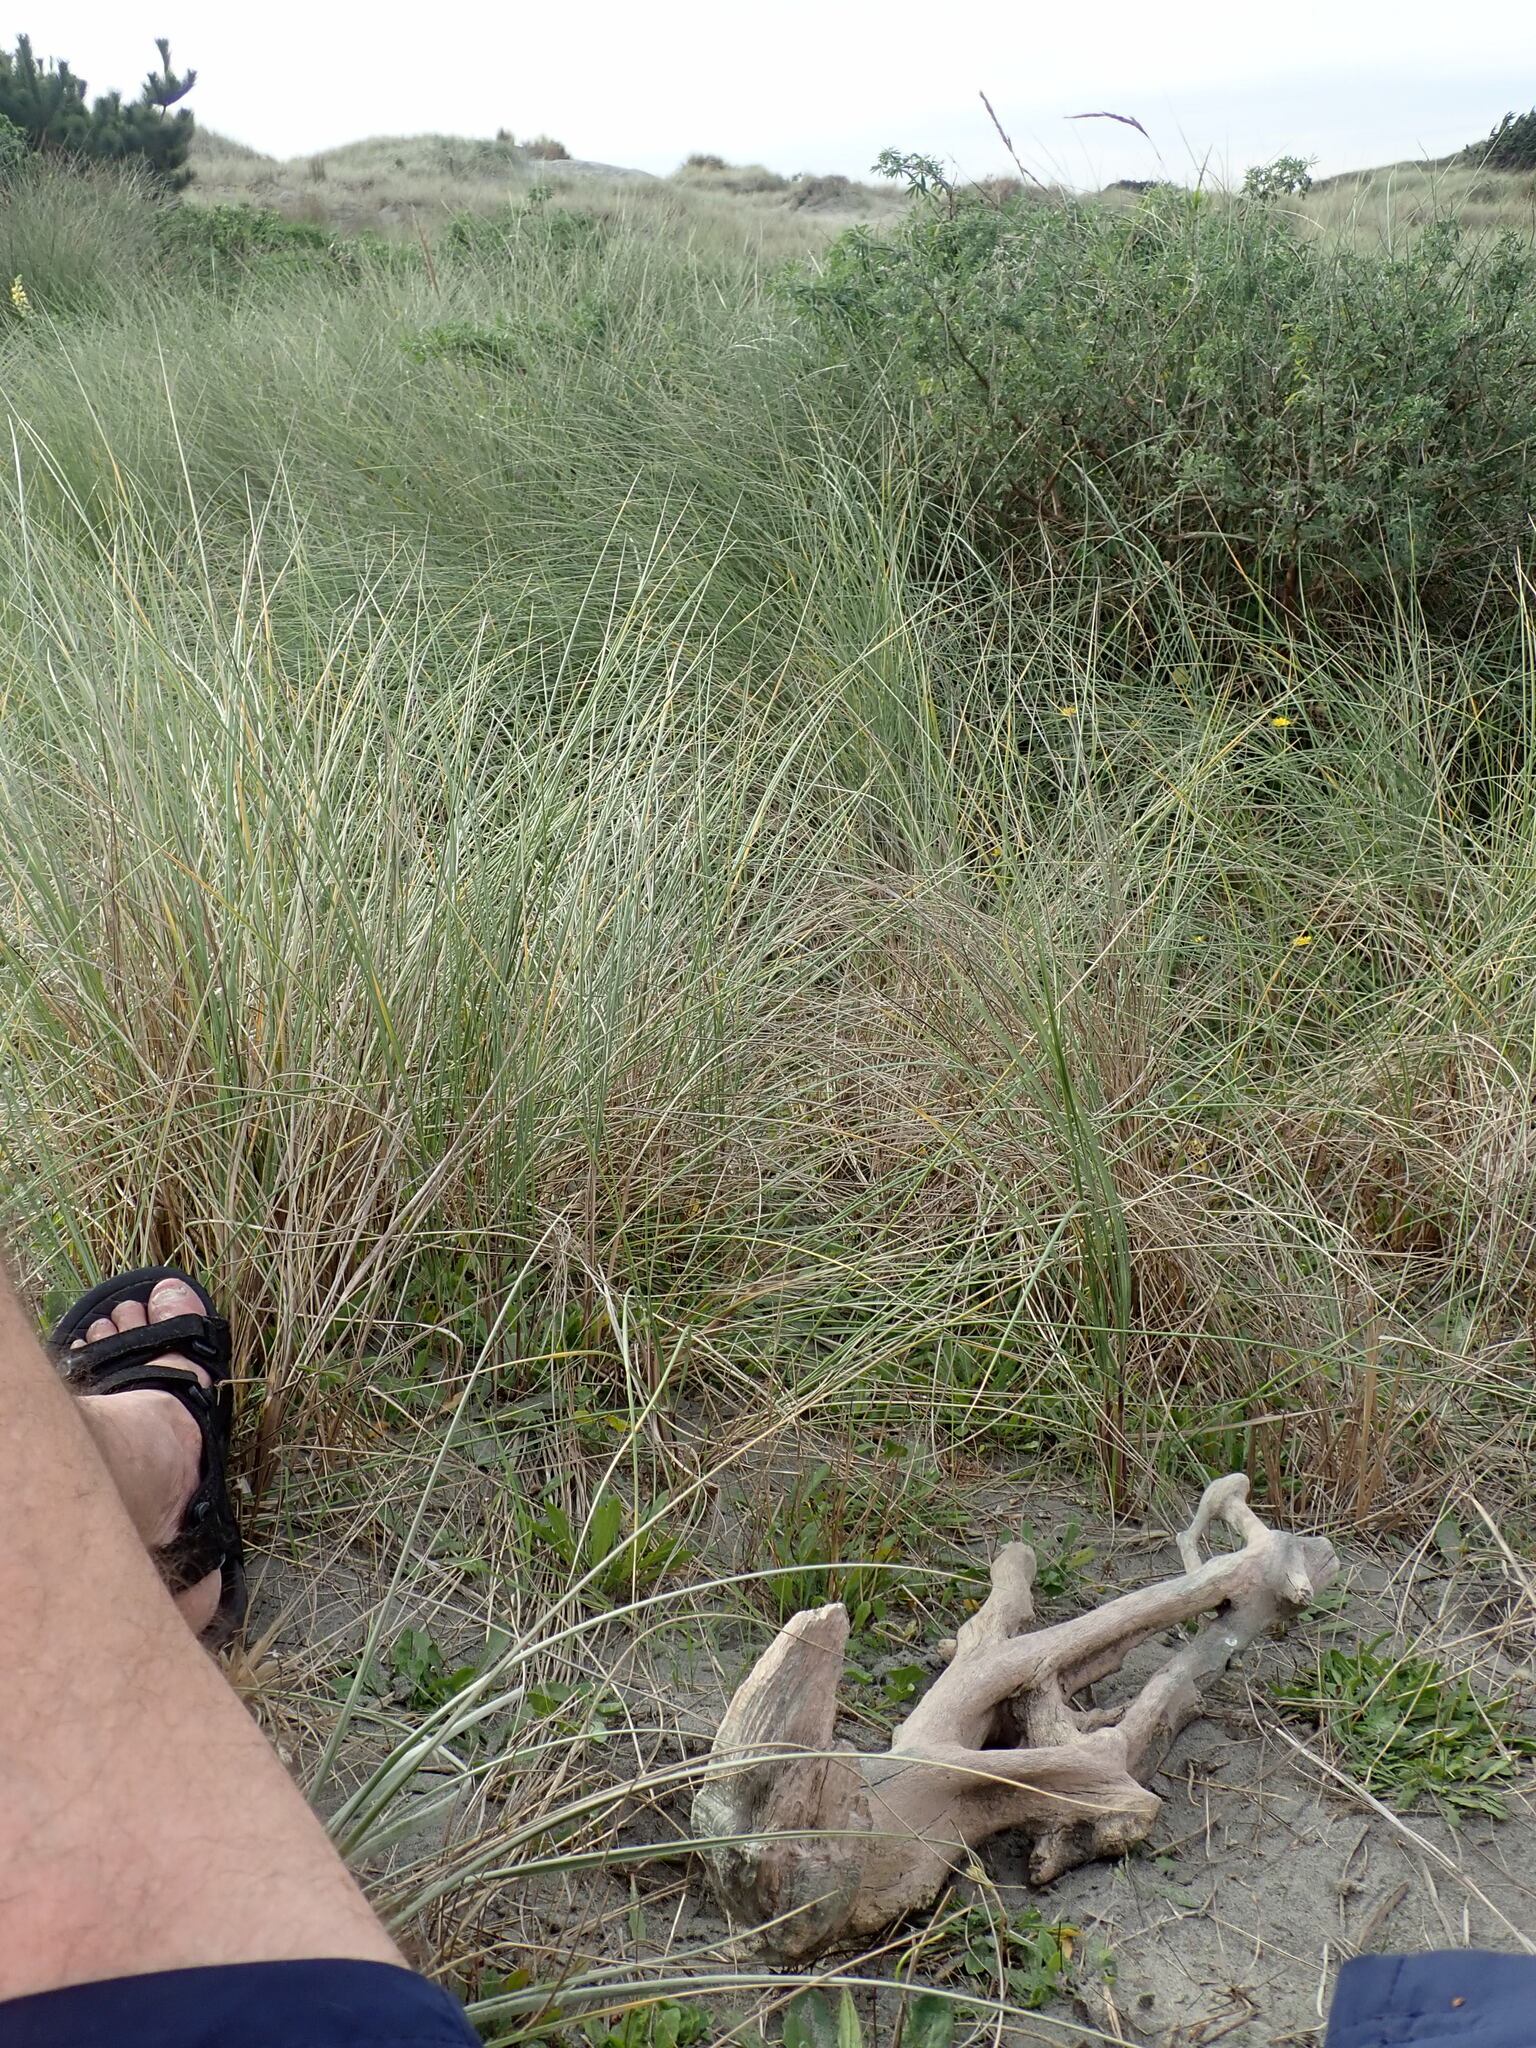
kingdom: Animalia
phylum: Mollusca
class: Gastropoda
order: Stylommatophora
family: Geomitridae
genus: Xeroplexa
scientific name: Xeroplexa intersecta
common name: Wrinkled snail
